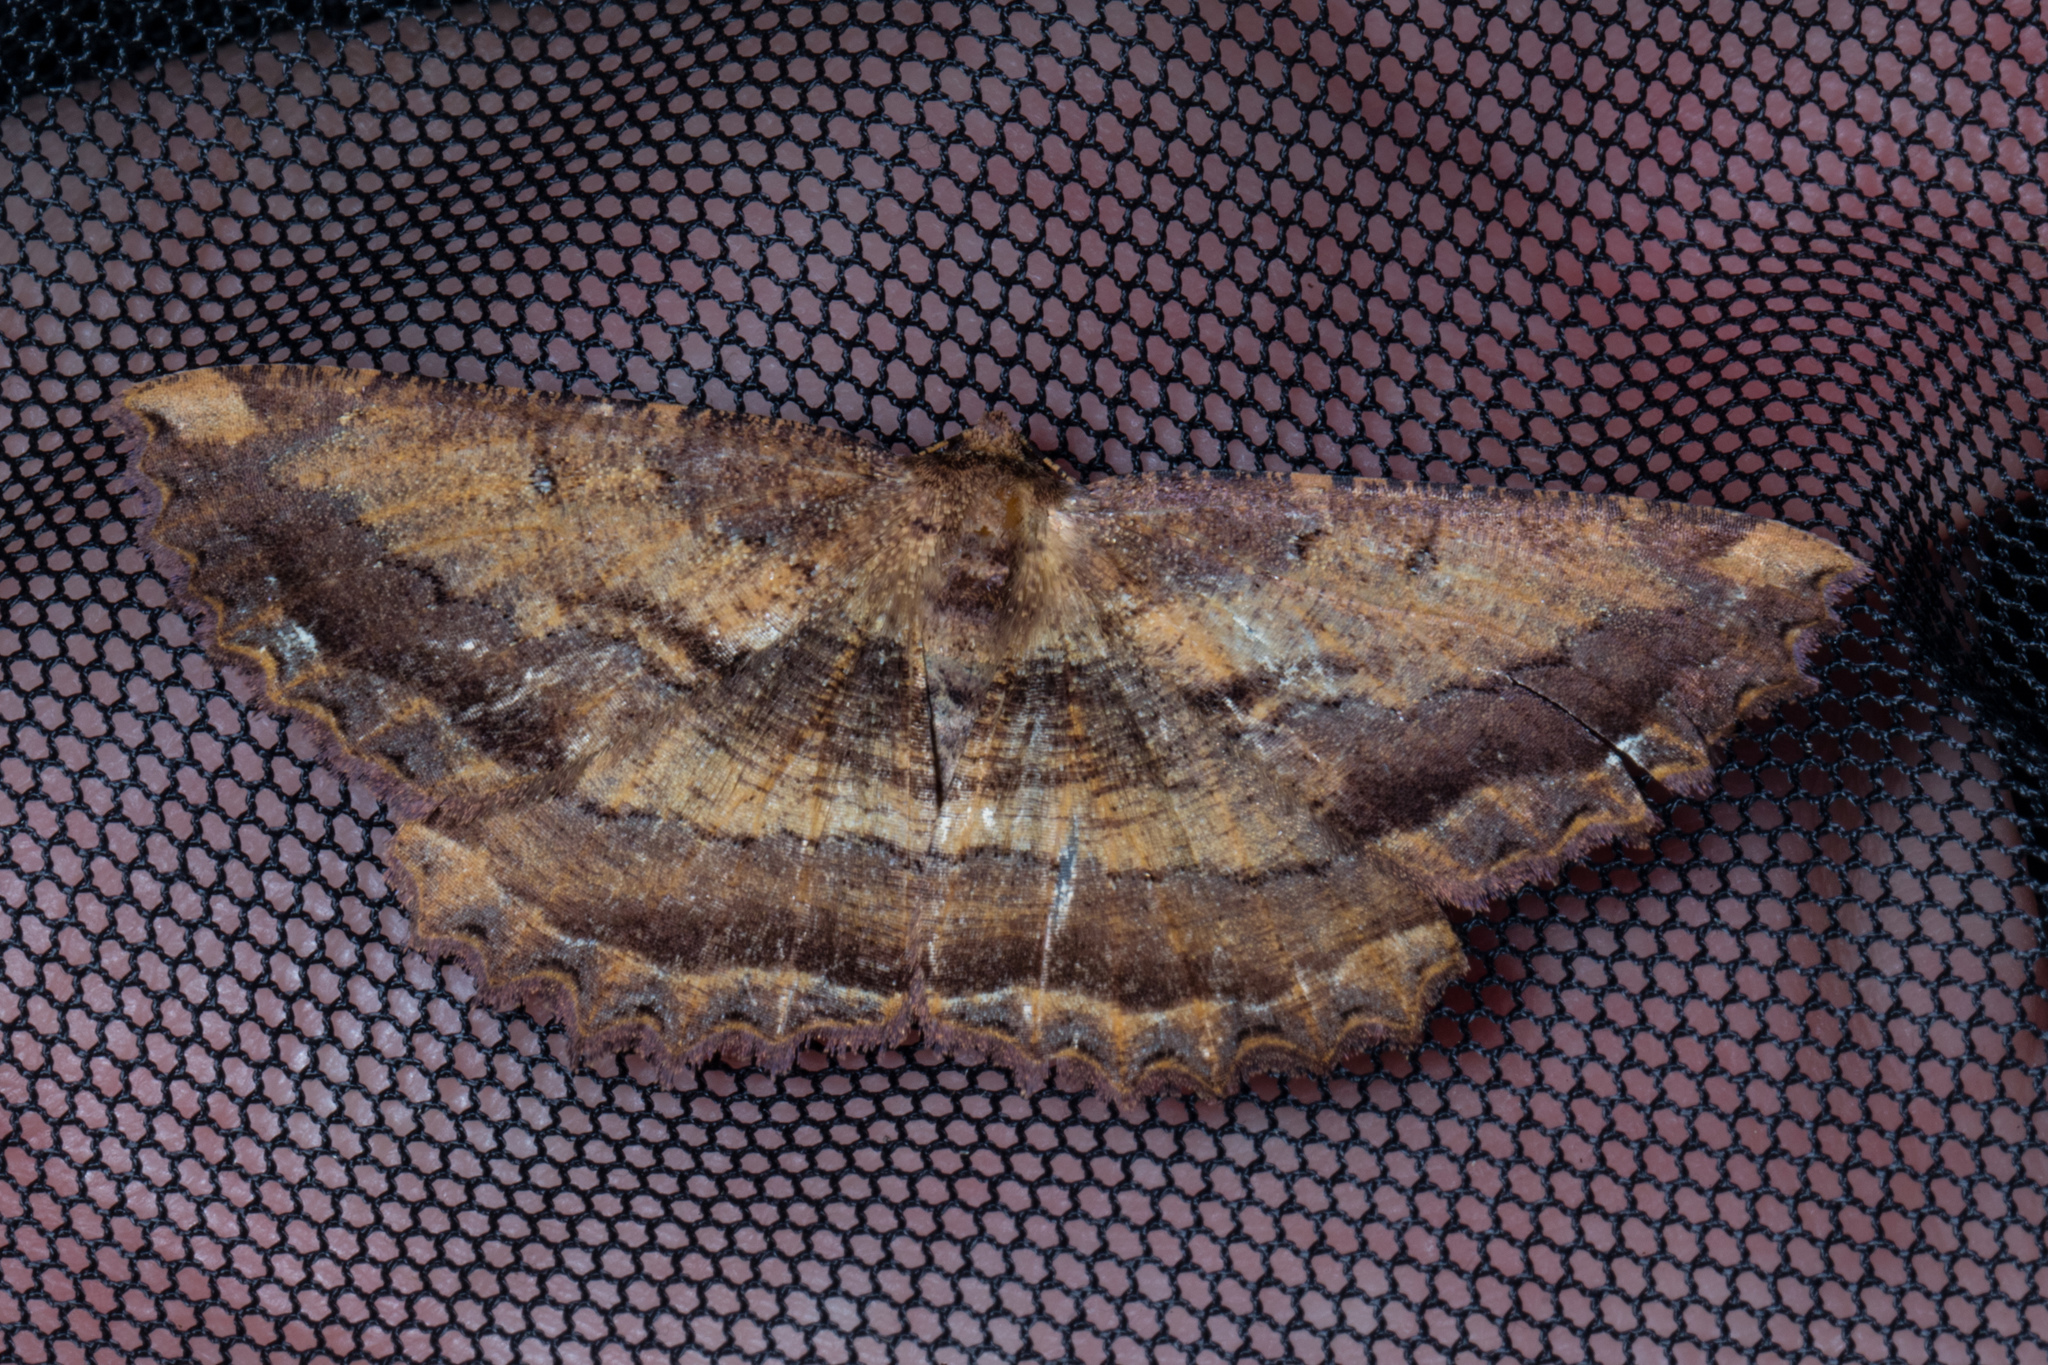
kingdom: Animalia
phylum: Arthropoda
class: Insecta
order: Lepidoptera
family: Geometridae
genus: Gellonia
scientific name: Gellonia dejectaria
